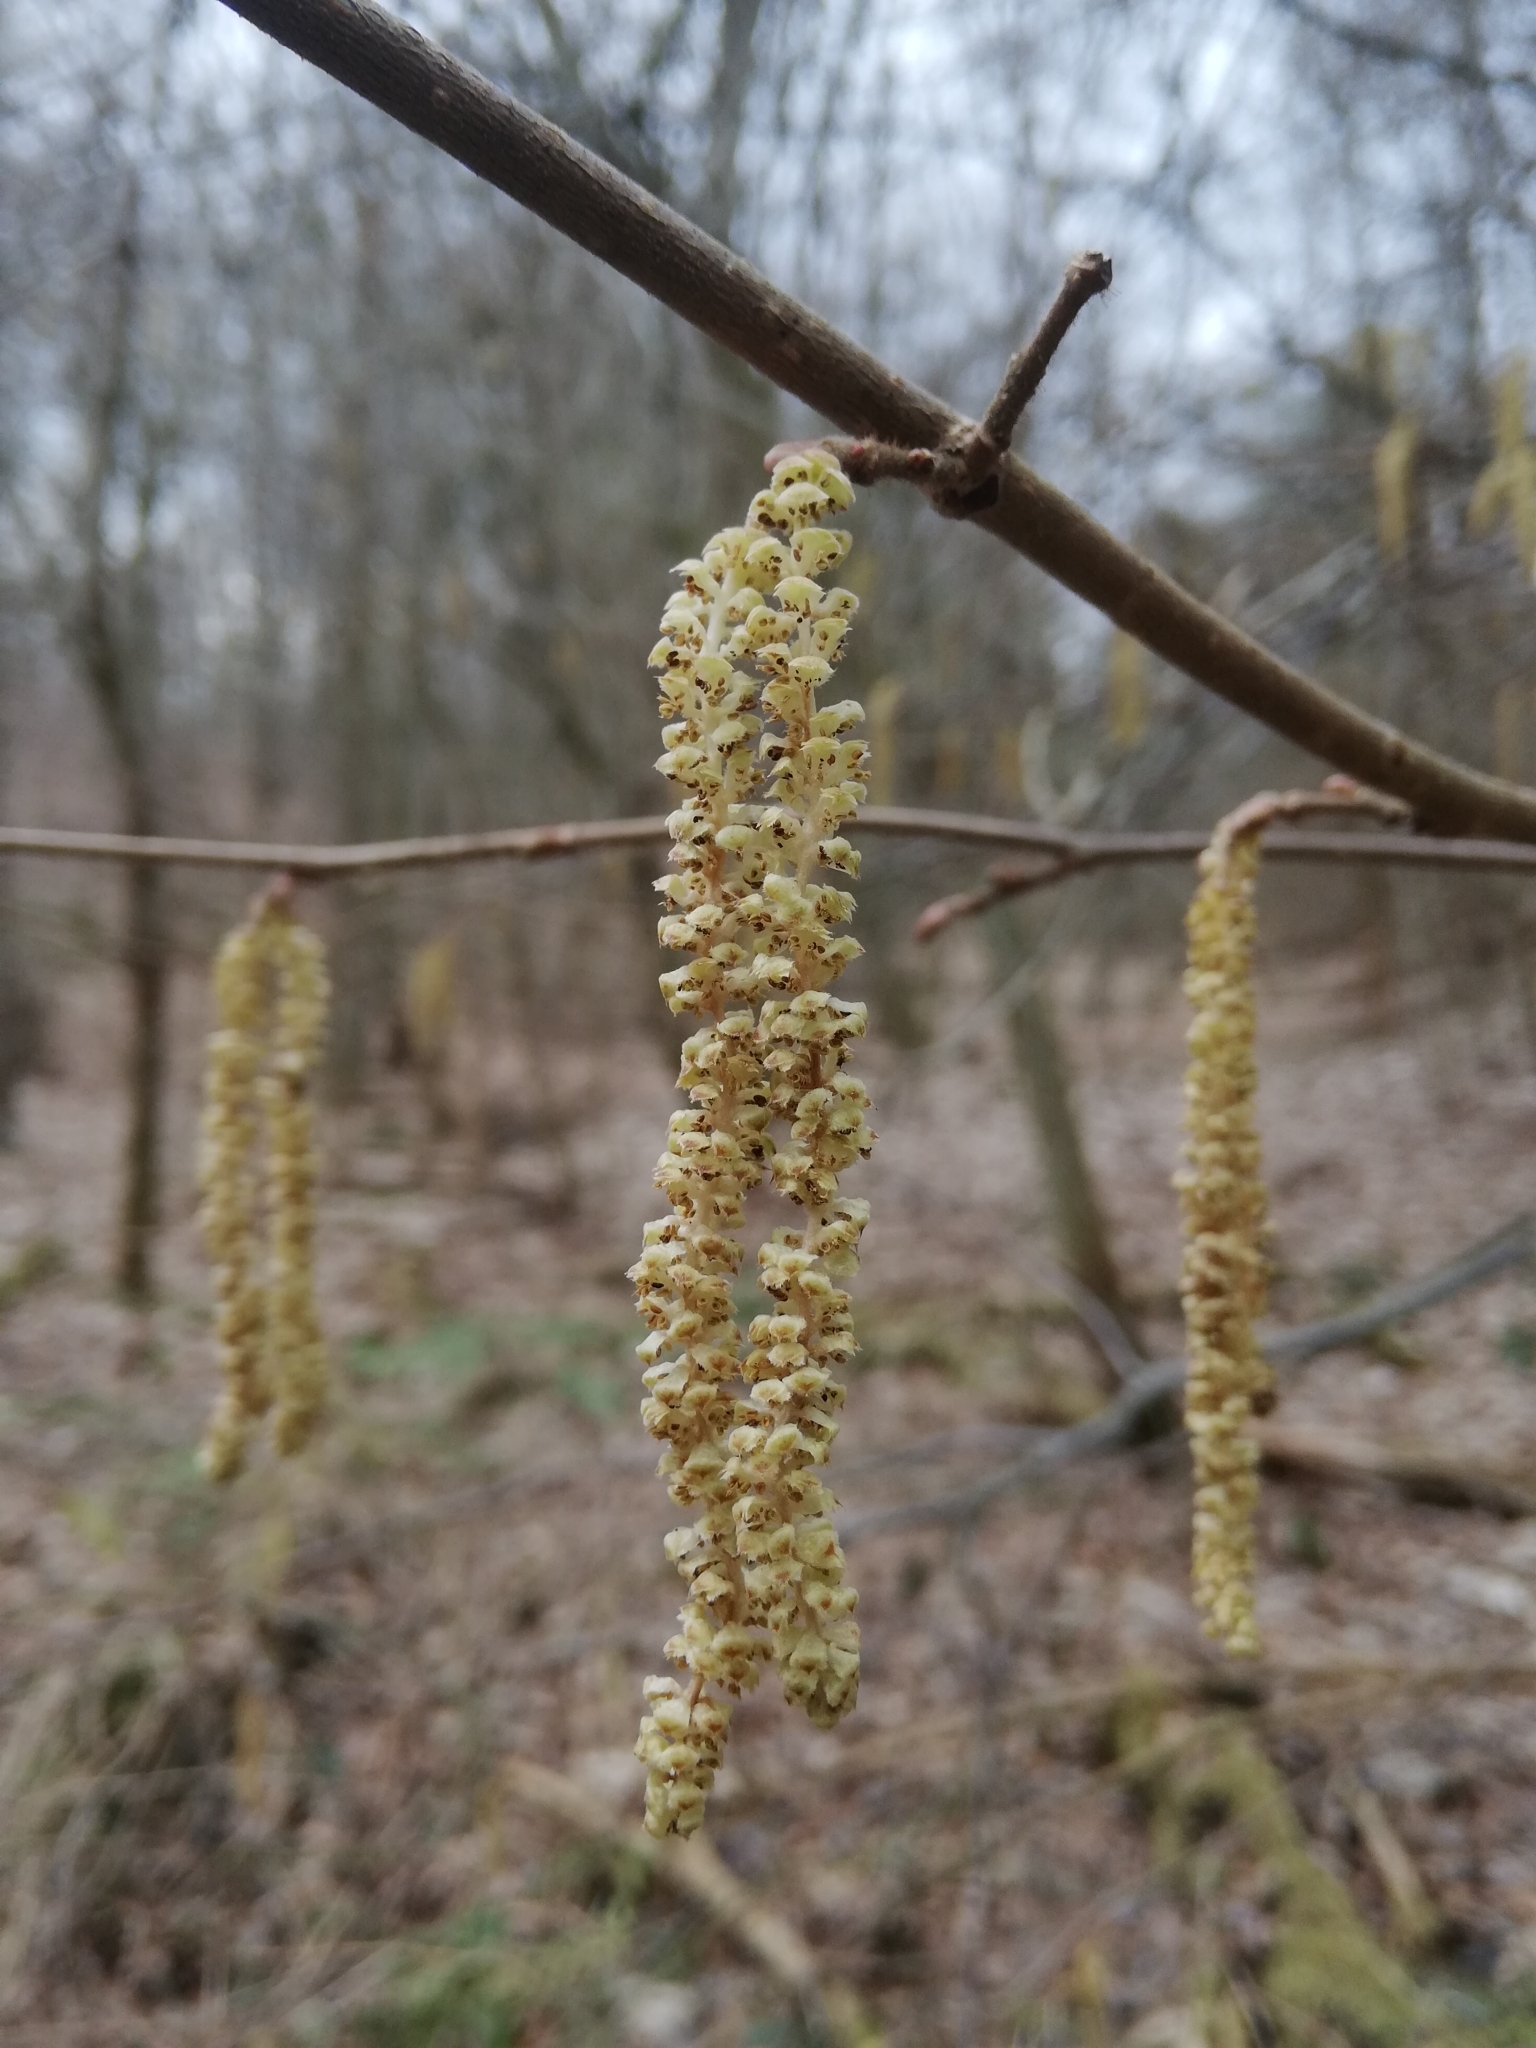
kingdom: Plantae
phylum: Tracheophyta
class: Magnoliopsida
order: Fagales
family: Betulaceae
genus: Corylus
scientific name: Corylus avellana
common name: European hazel
